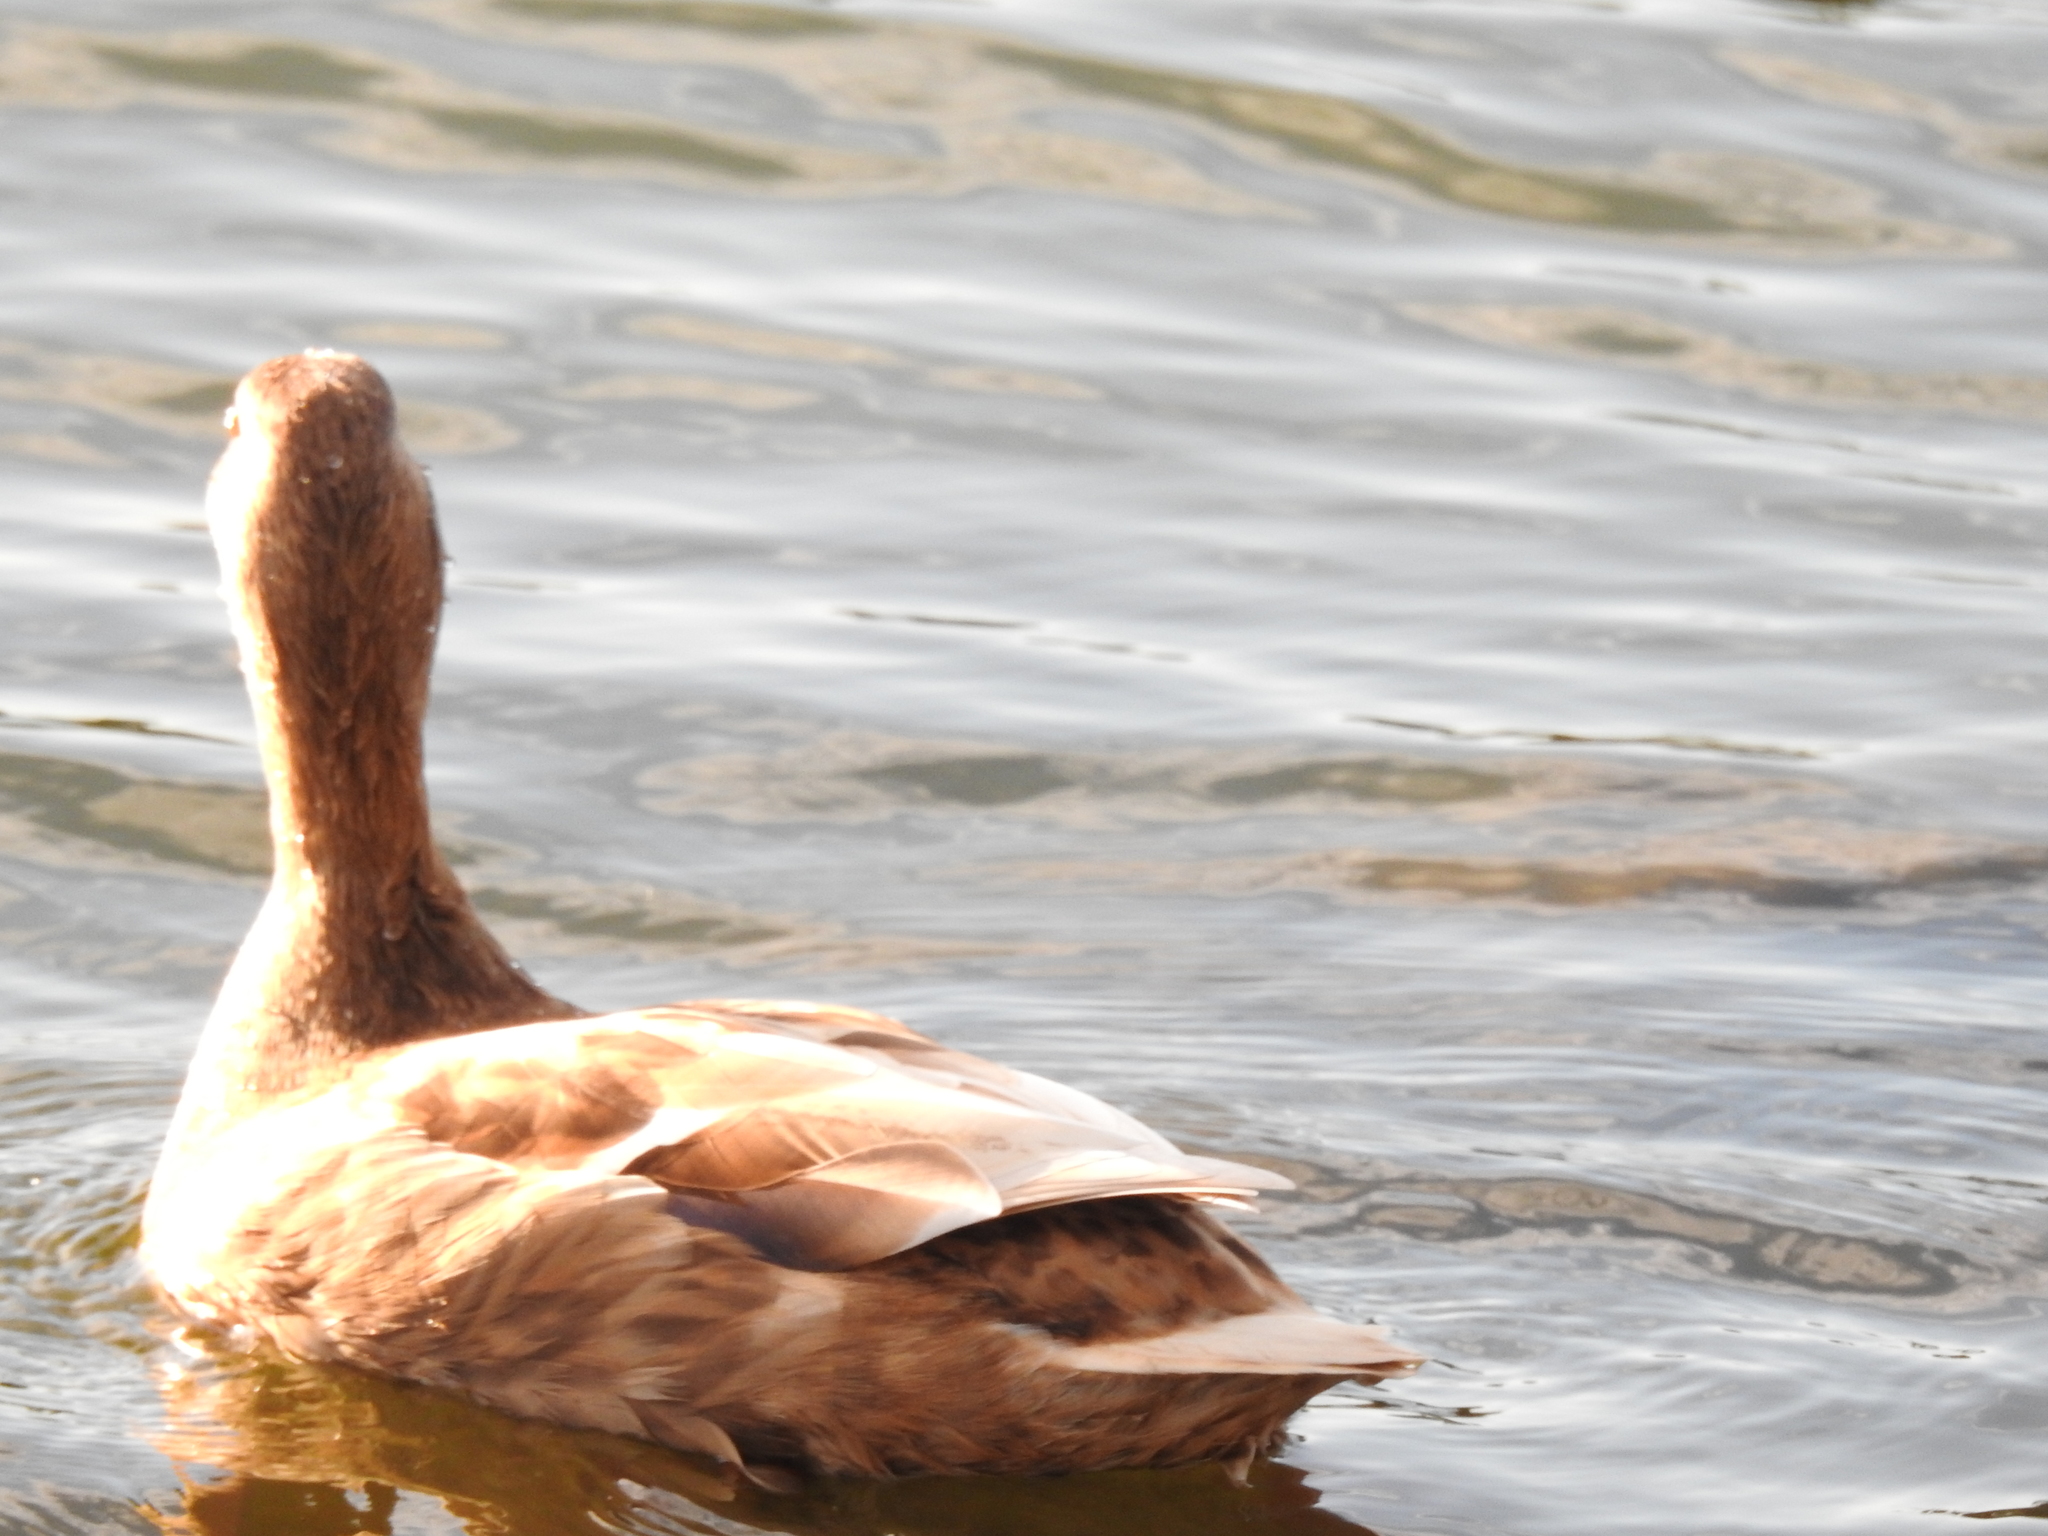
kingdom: Animalia
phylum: Chordata
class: Aves
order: Anseriformes
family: Anatidae
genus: Anas
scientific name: Anas platyrhynchos
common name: Mallard
